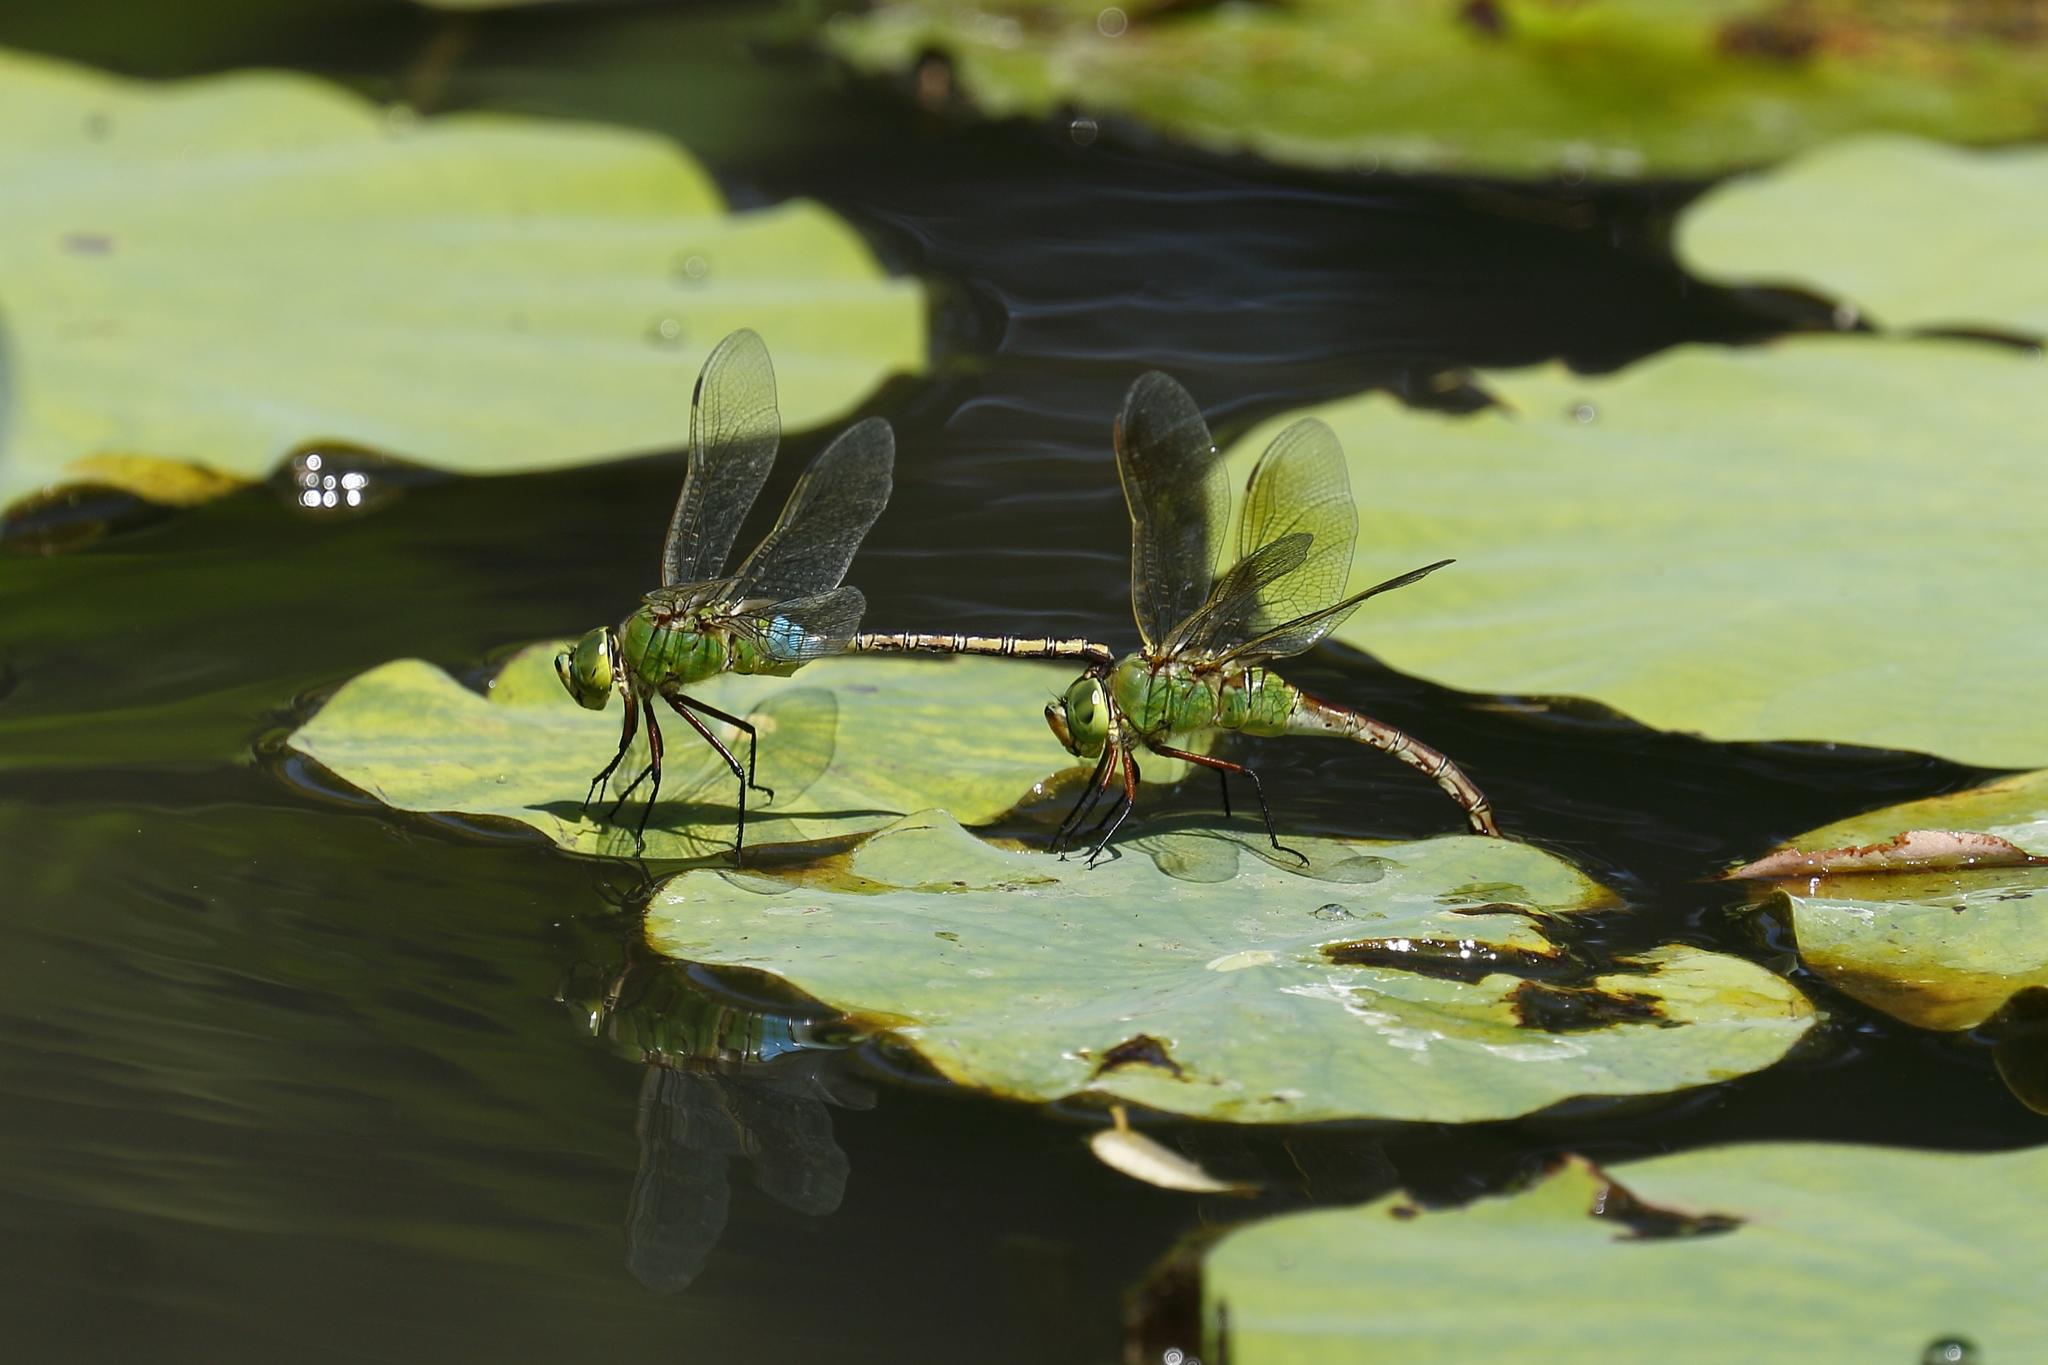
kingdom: Animalia
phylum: Arthropoda
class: Insecta
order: Odonata
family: Aeshnidae
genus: Anax
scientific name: Anax julius
